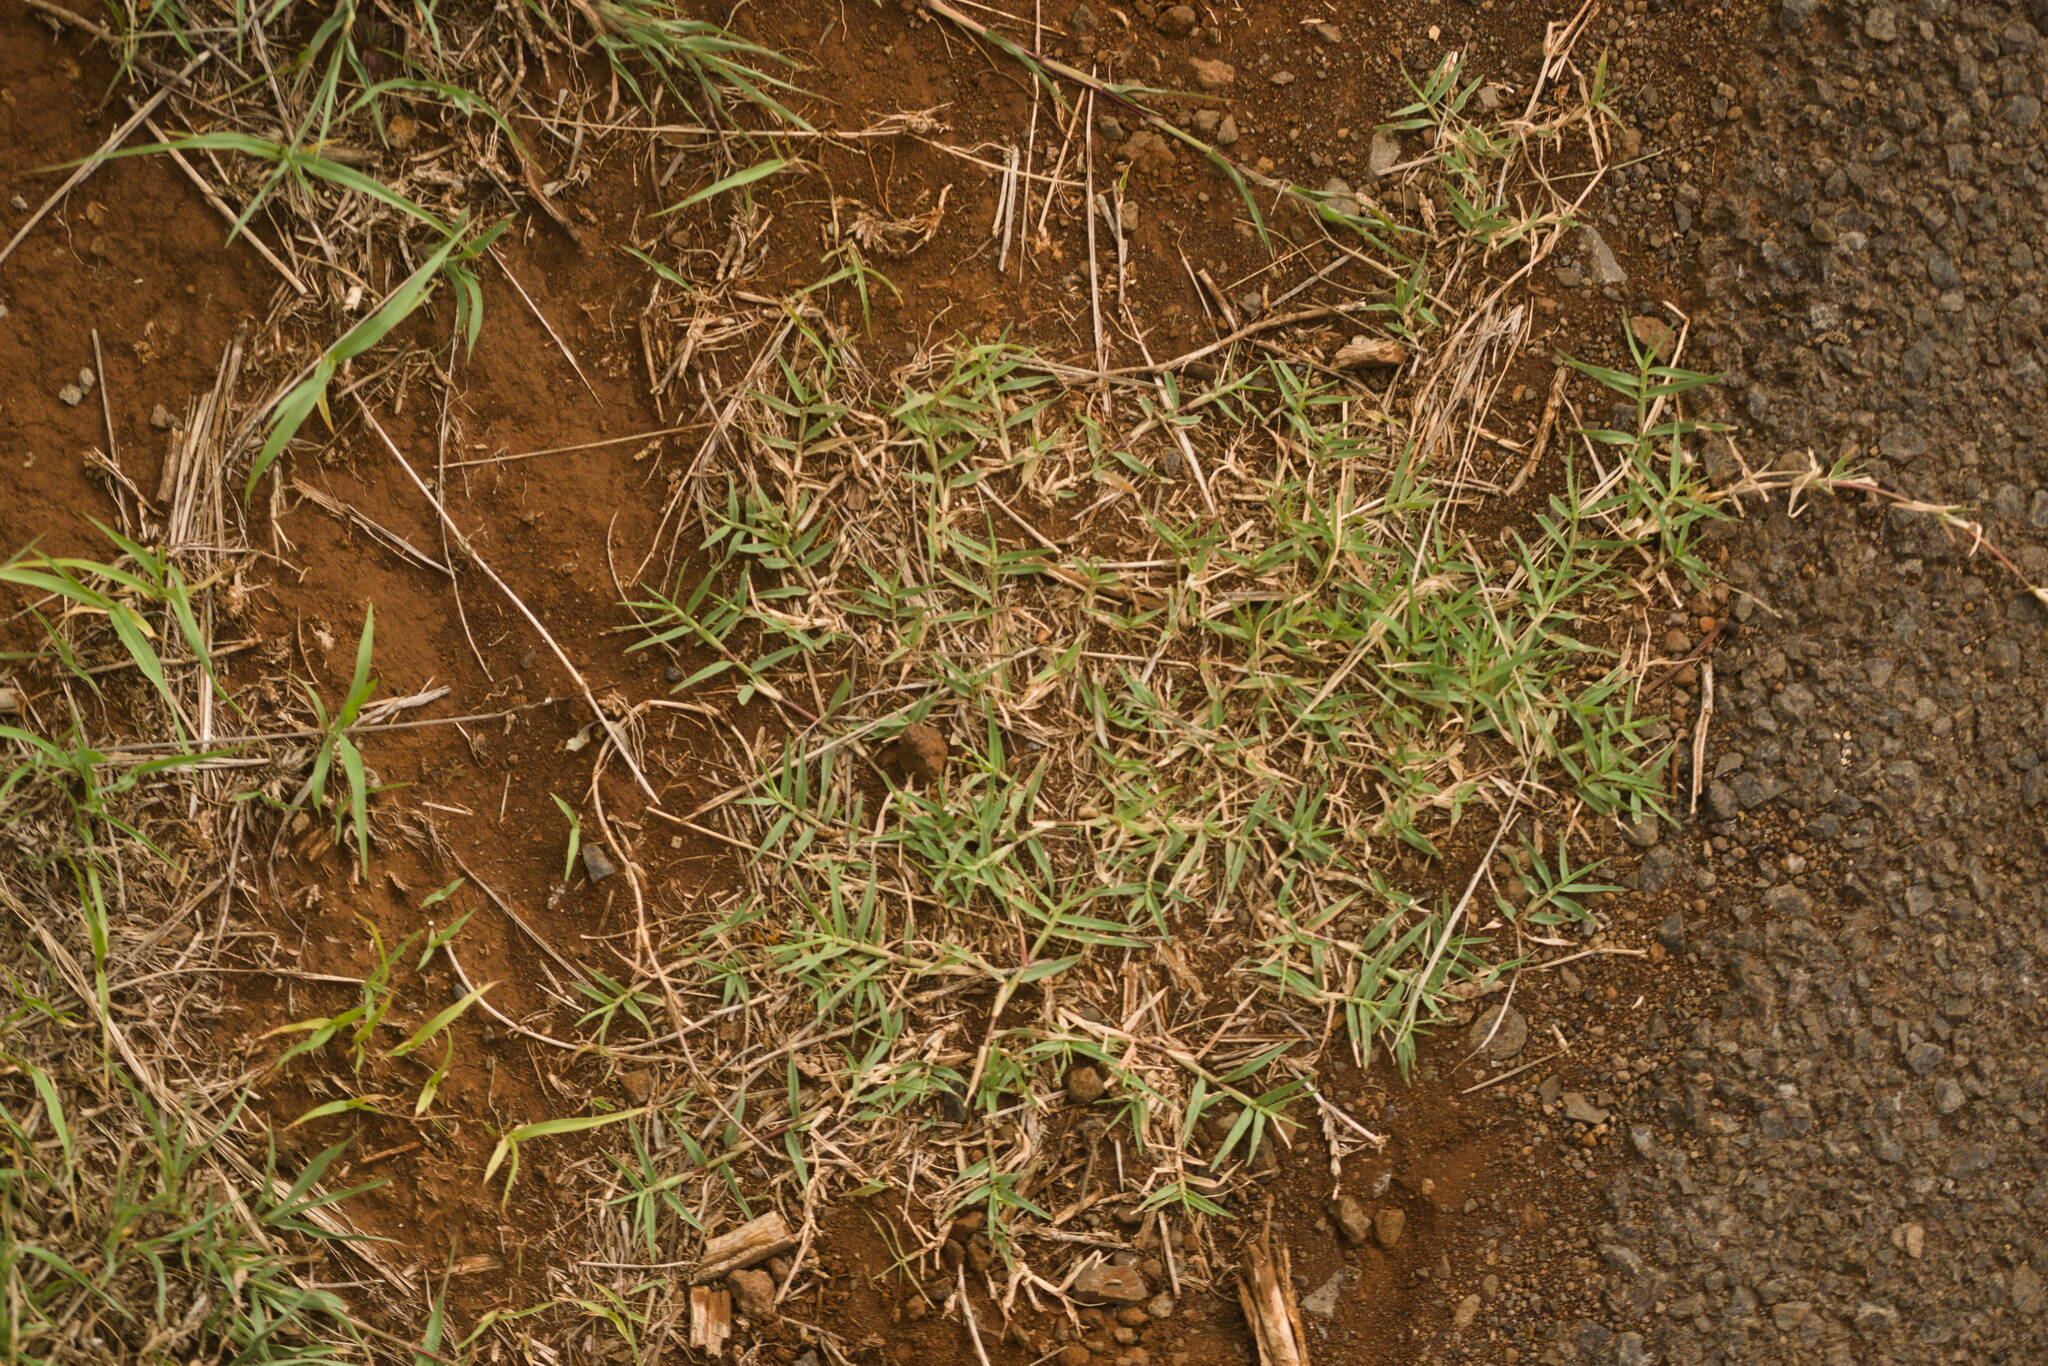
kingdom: Plantae
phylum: Tracheophyta
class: Liliopsida
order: Poales
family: Poaceae
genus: Cynodon
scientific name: Cynodon dactylon
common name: Bermuda grass
